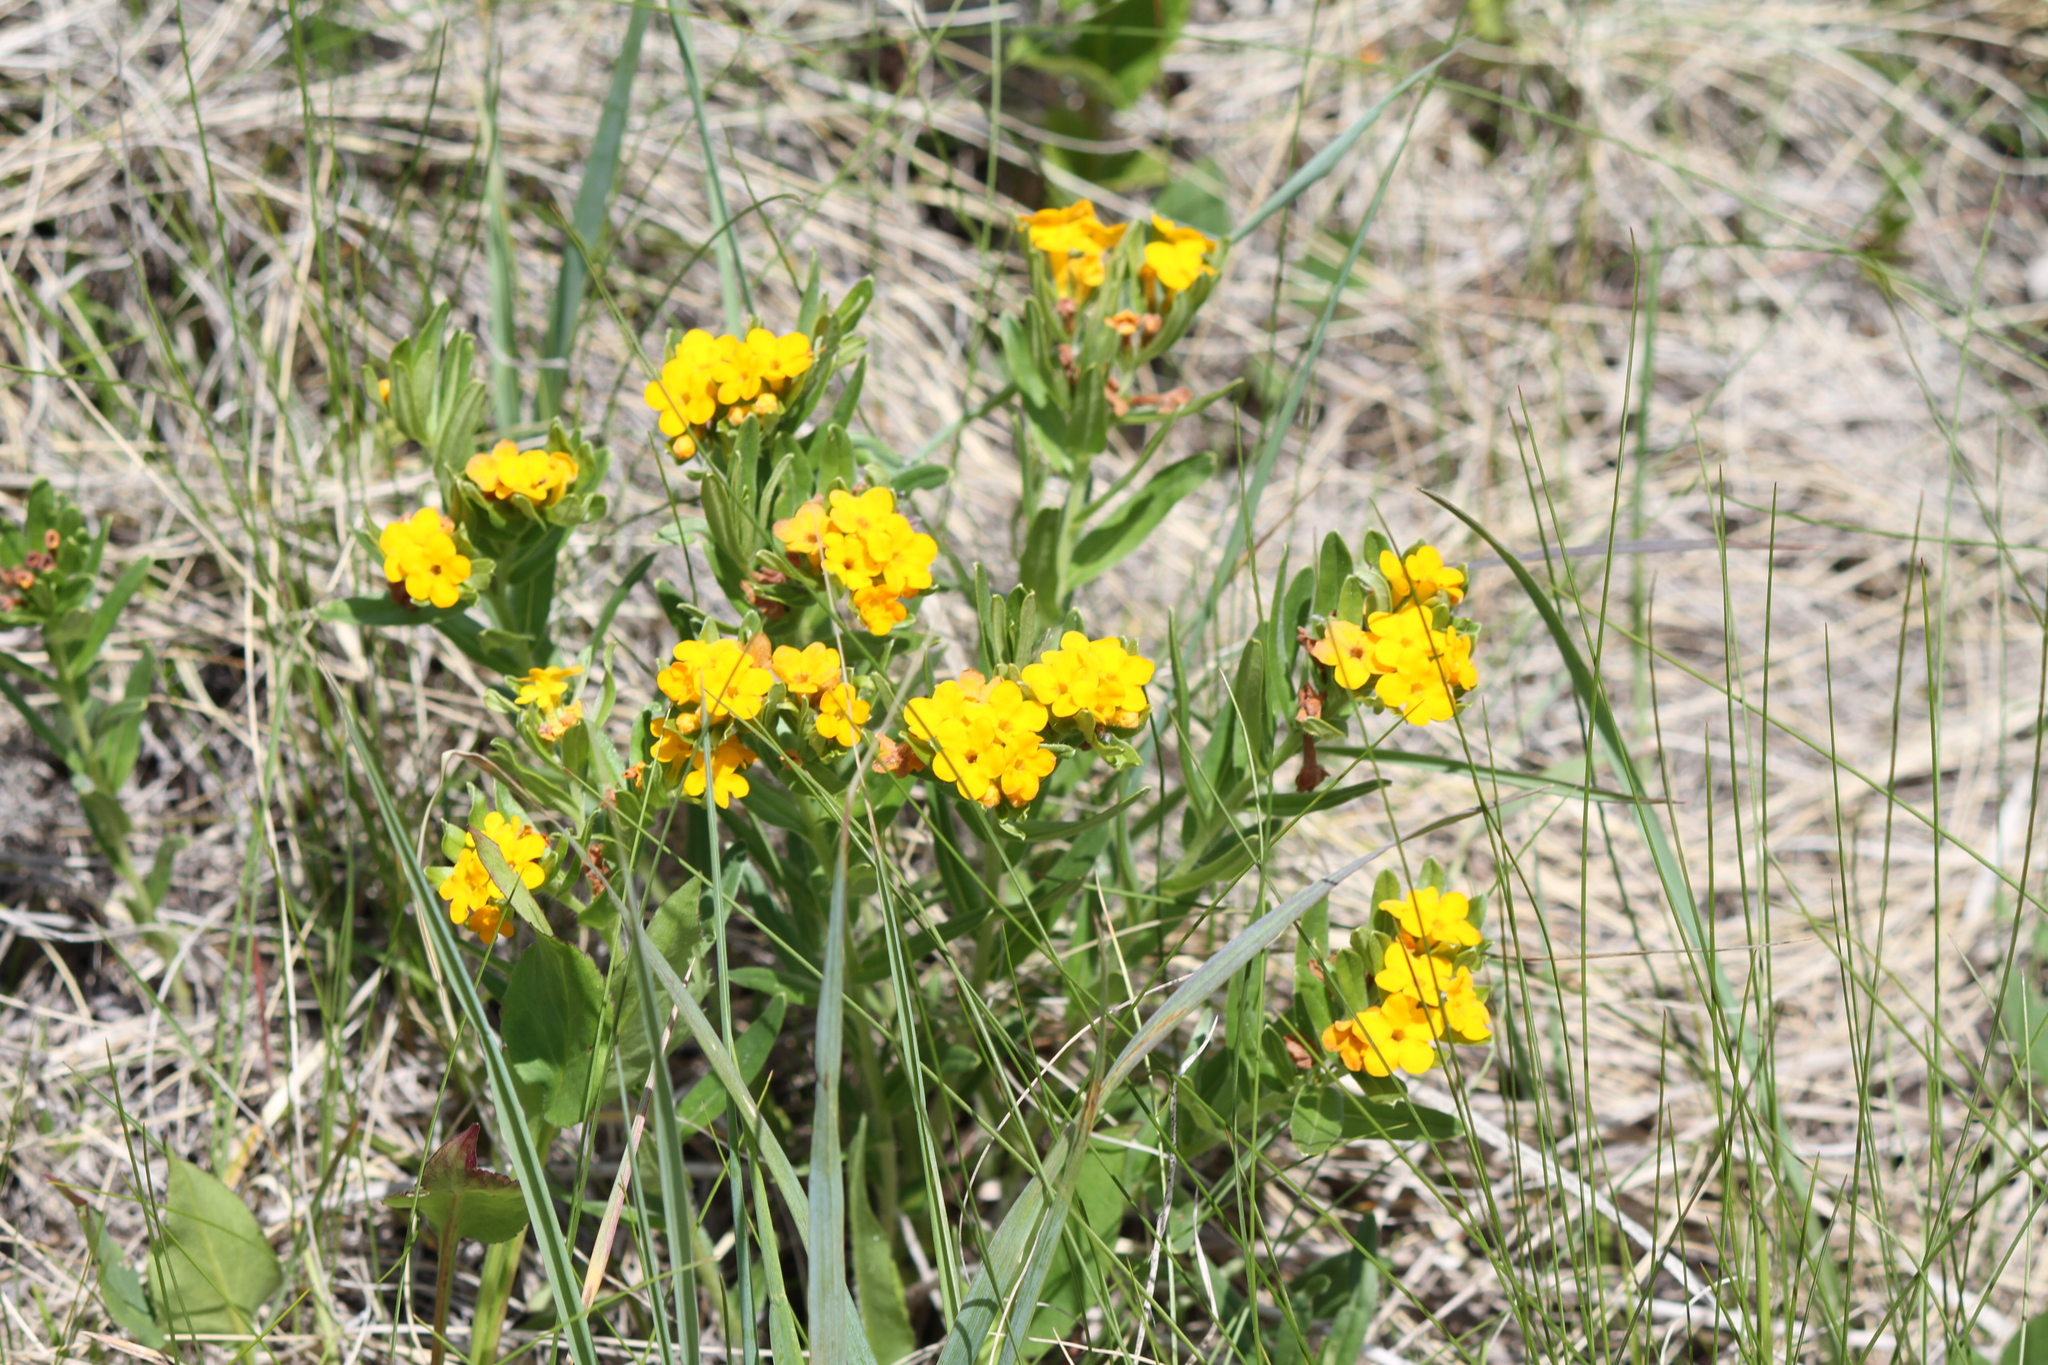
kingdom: Plantae
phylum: Tracheophyta
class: Magnoliopsida
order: Boraginales
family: Boraginaceae
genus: Lithospermum
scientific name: Lithospermum canescens
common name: Hoary puccoon
